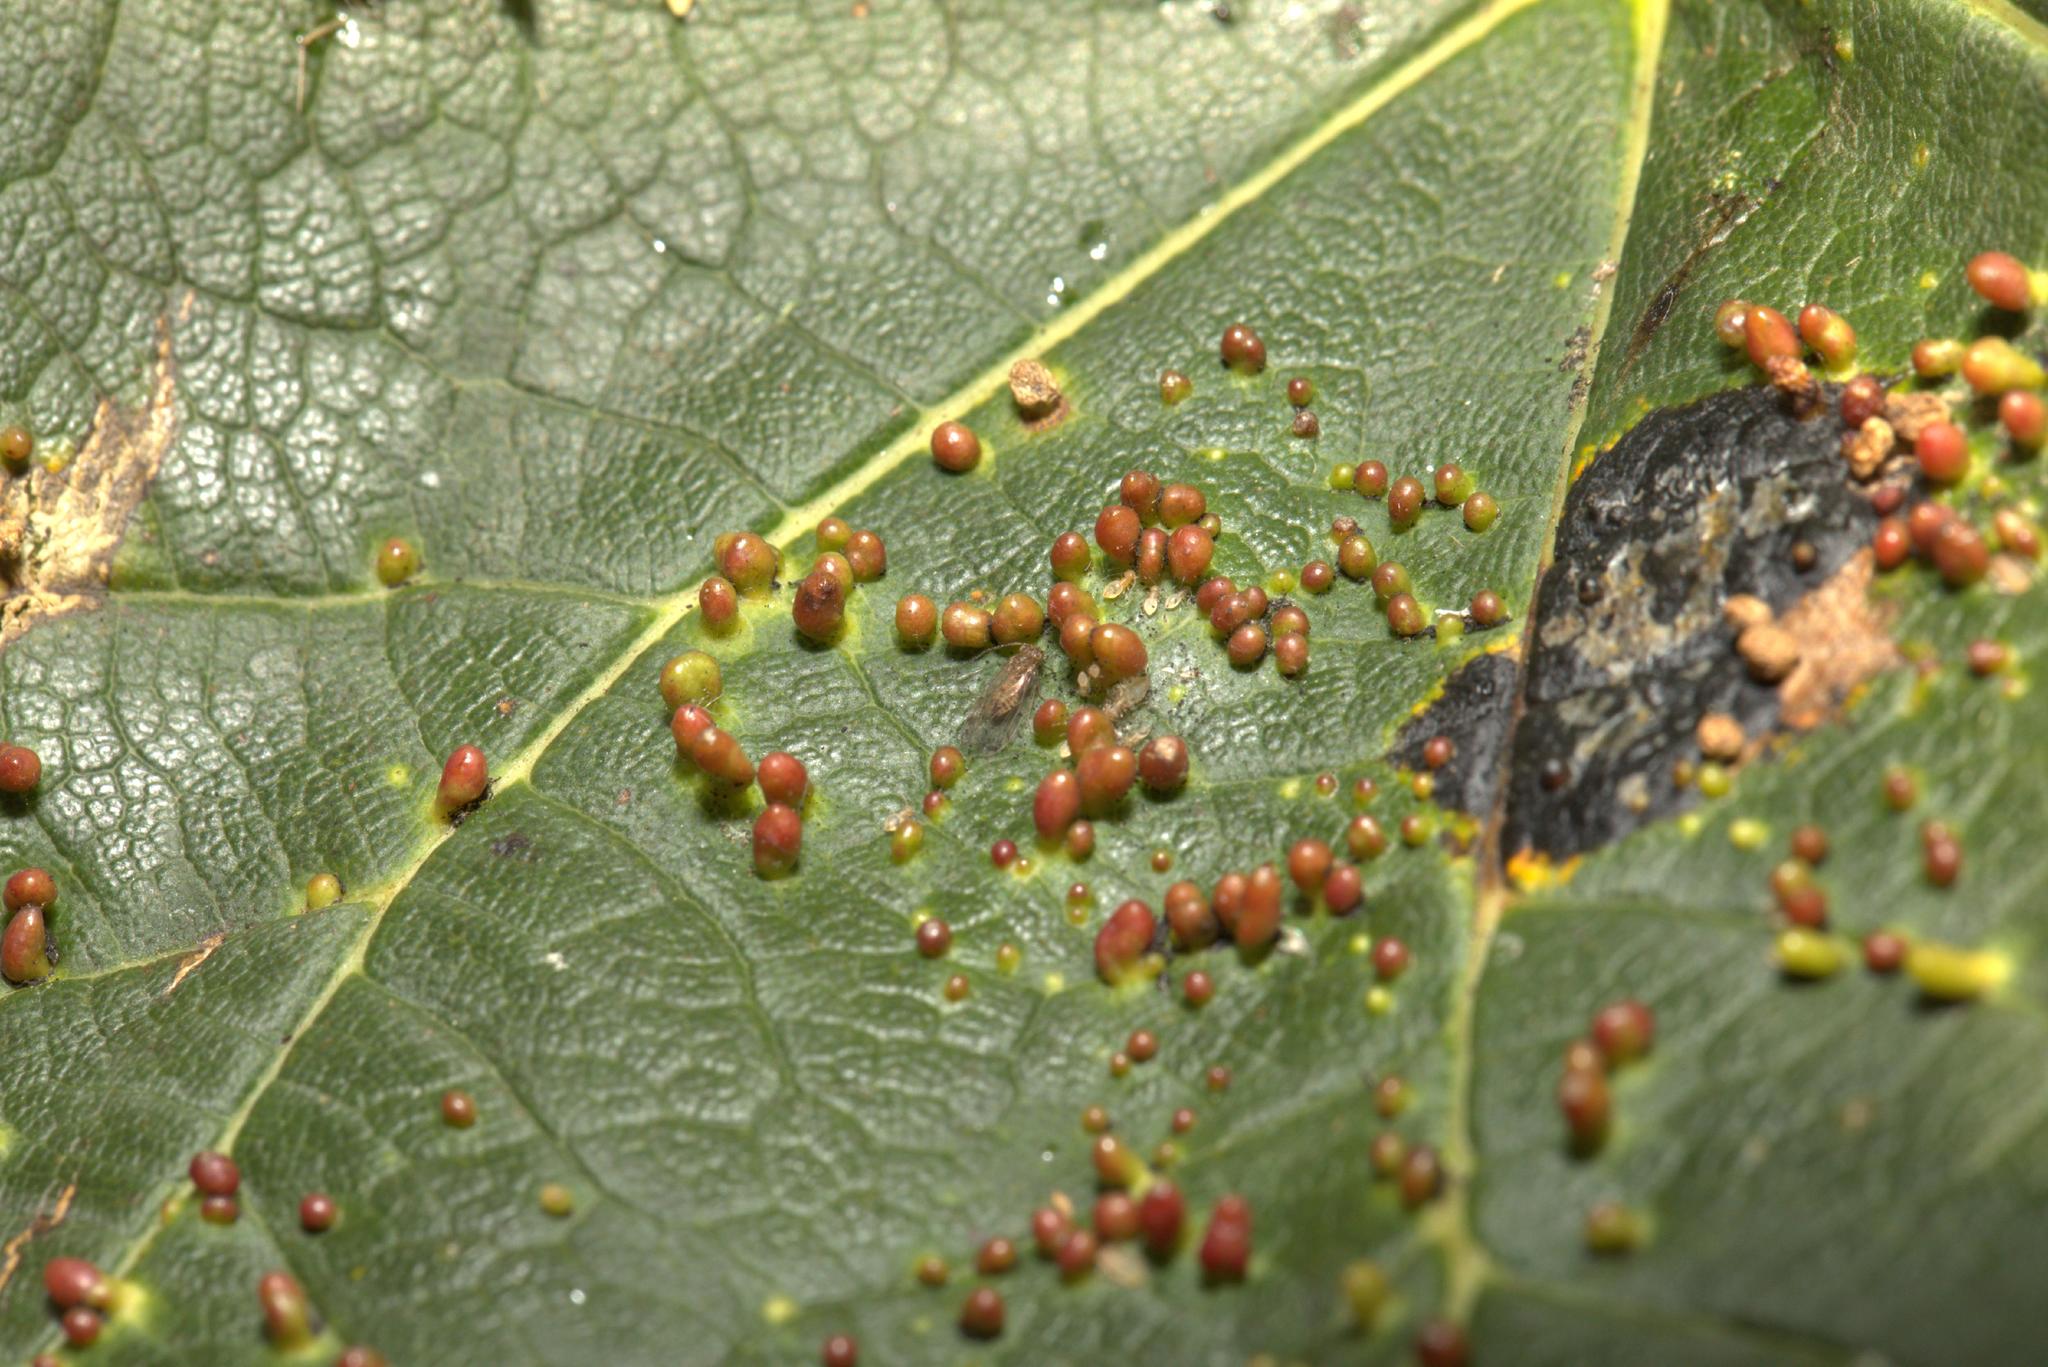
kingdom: Animalia
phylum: Arthropoda
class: Arachnida
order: Trombidiformes
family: Eriophyidae
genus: Aceria
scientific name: Aceria cephaloneus
